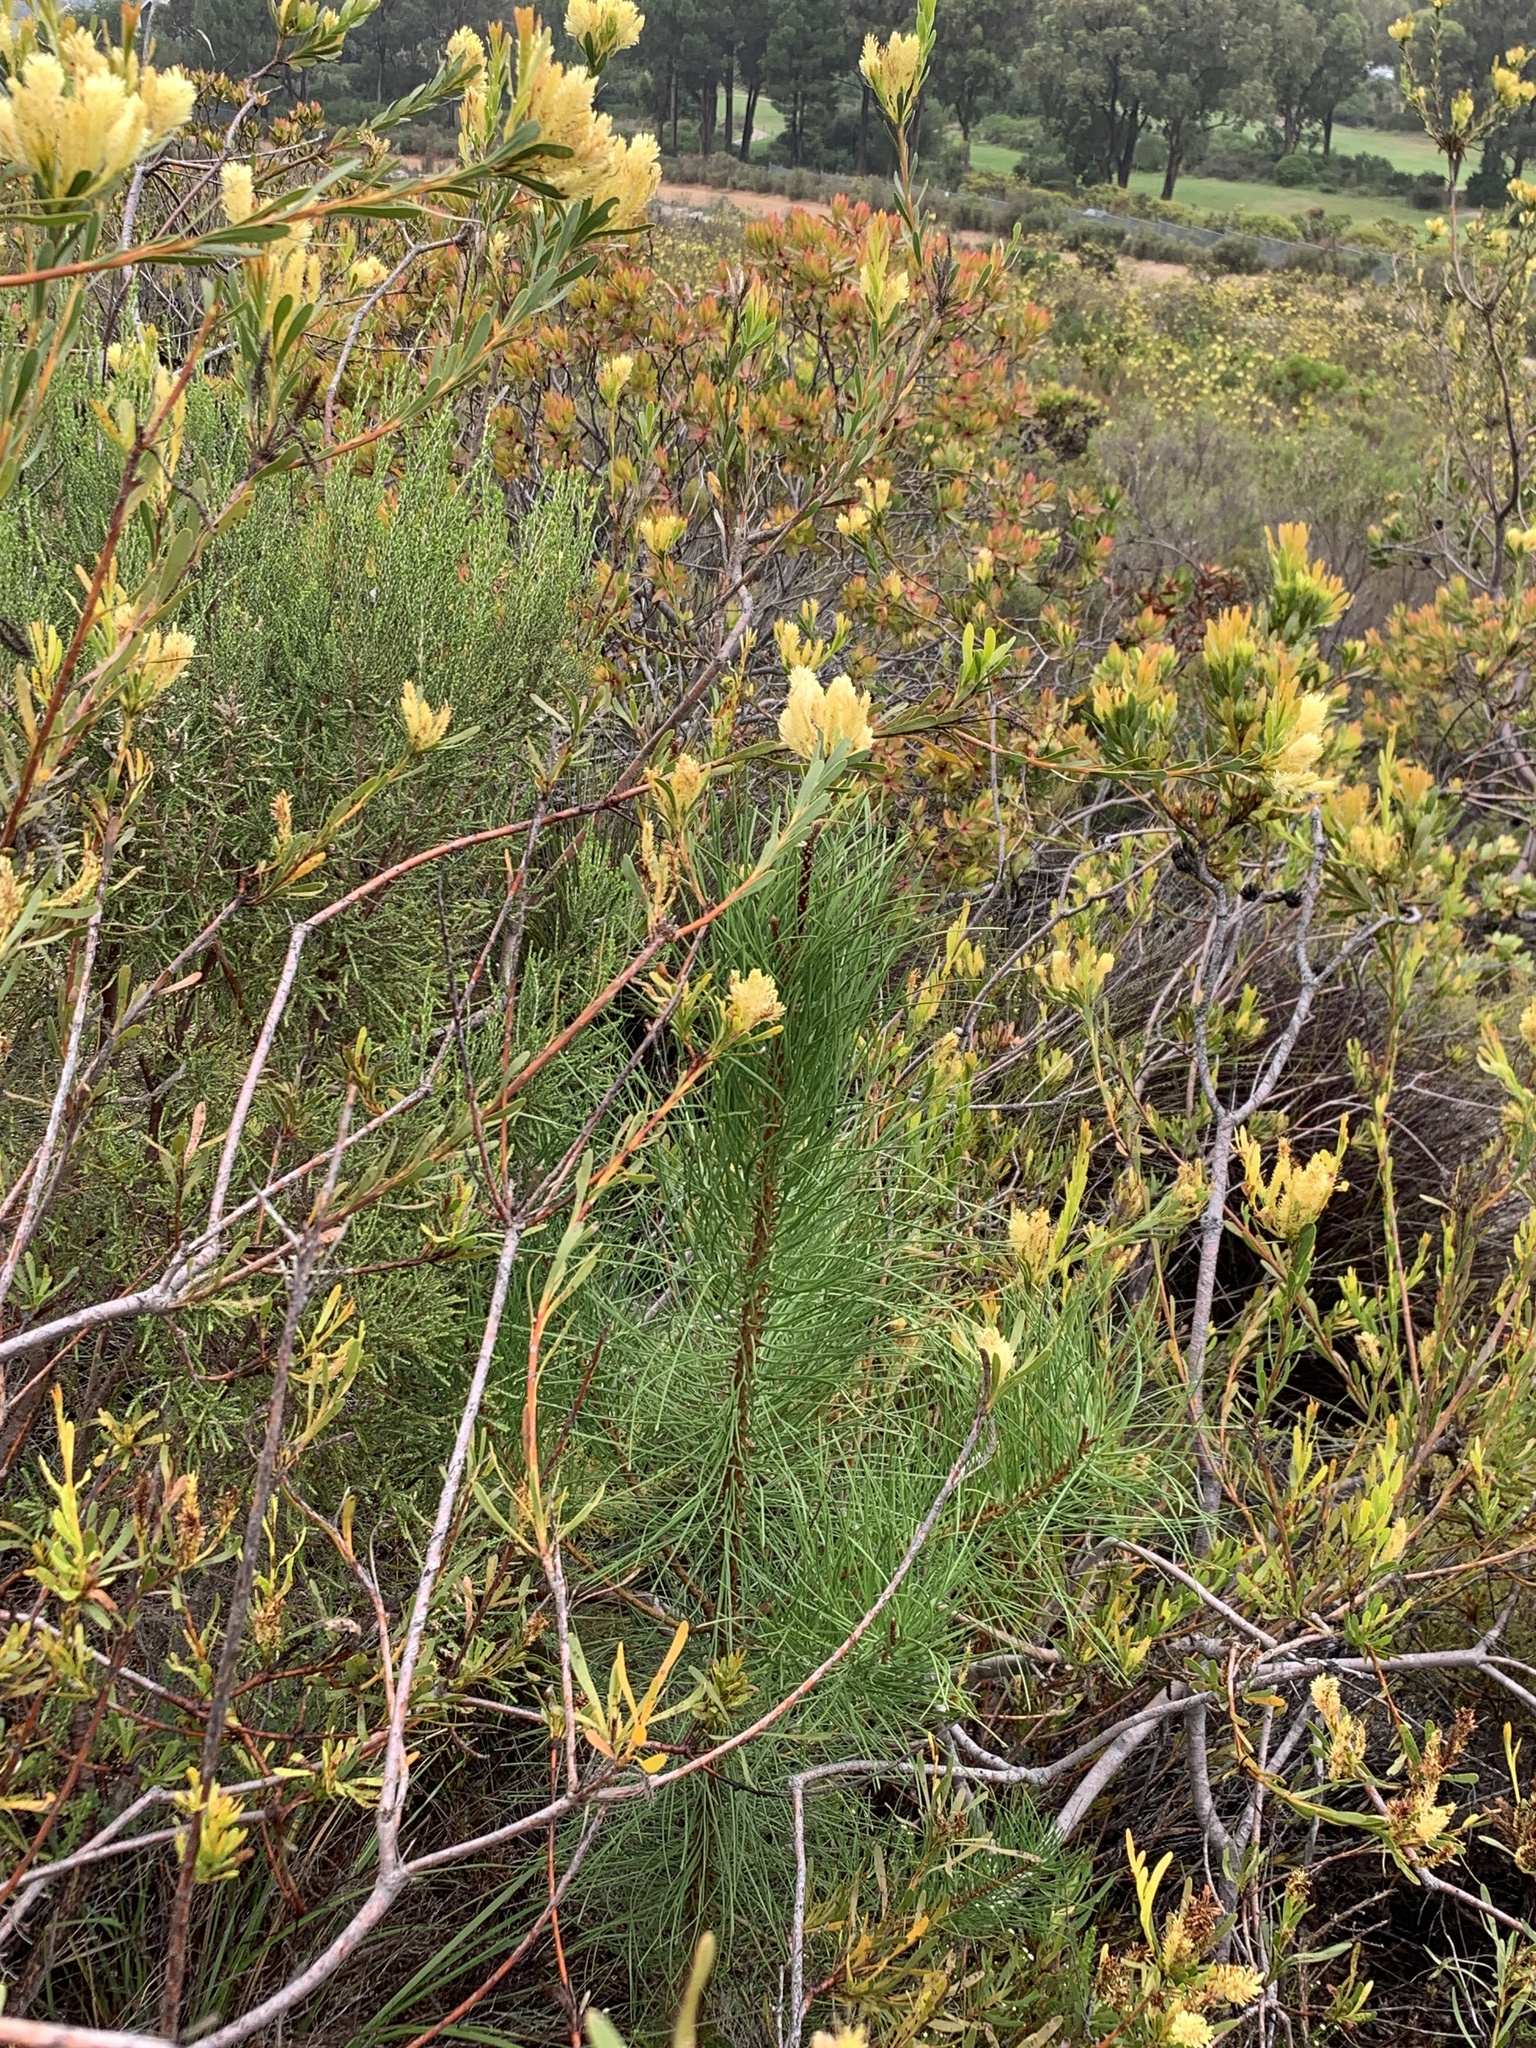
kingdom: Plantae
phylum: Tracheophyta
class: Pinopsida
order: Pinales
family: Pinaceae
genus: Pinus
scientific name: Pinus pinaster
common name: Maritime pine
